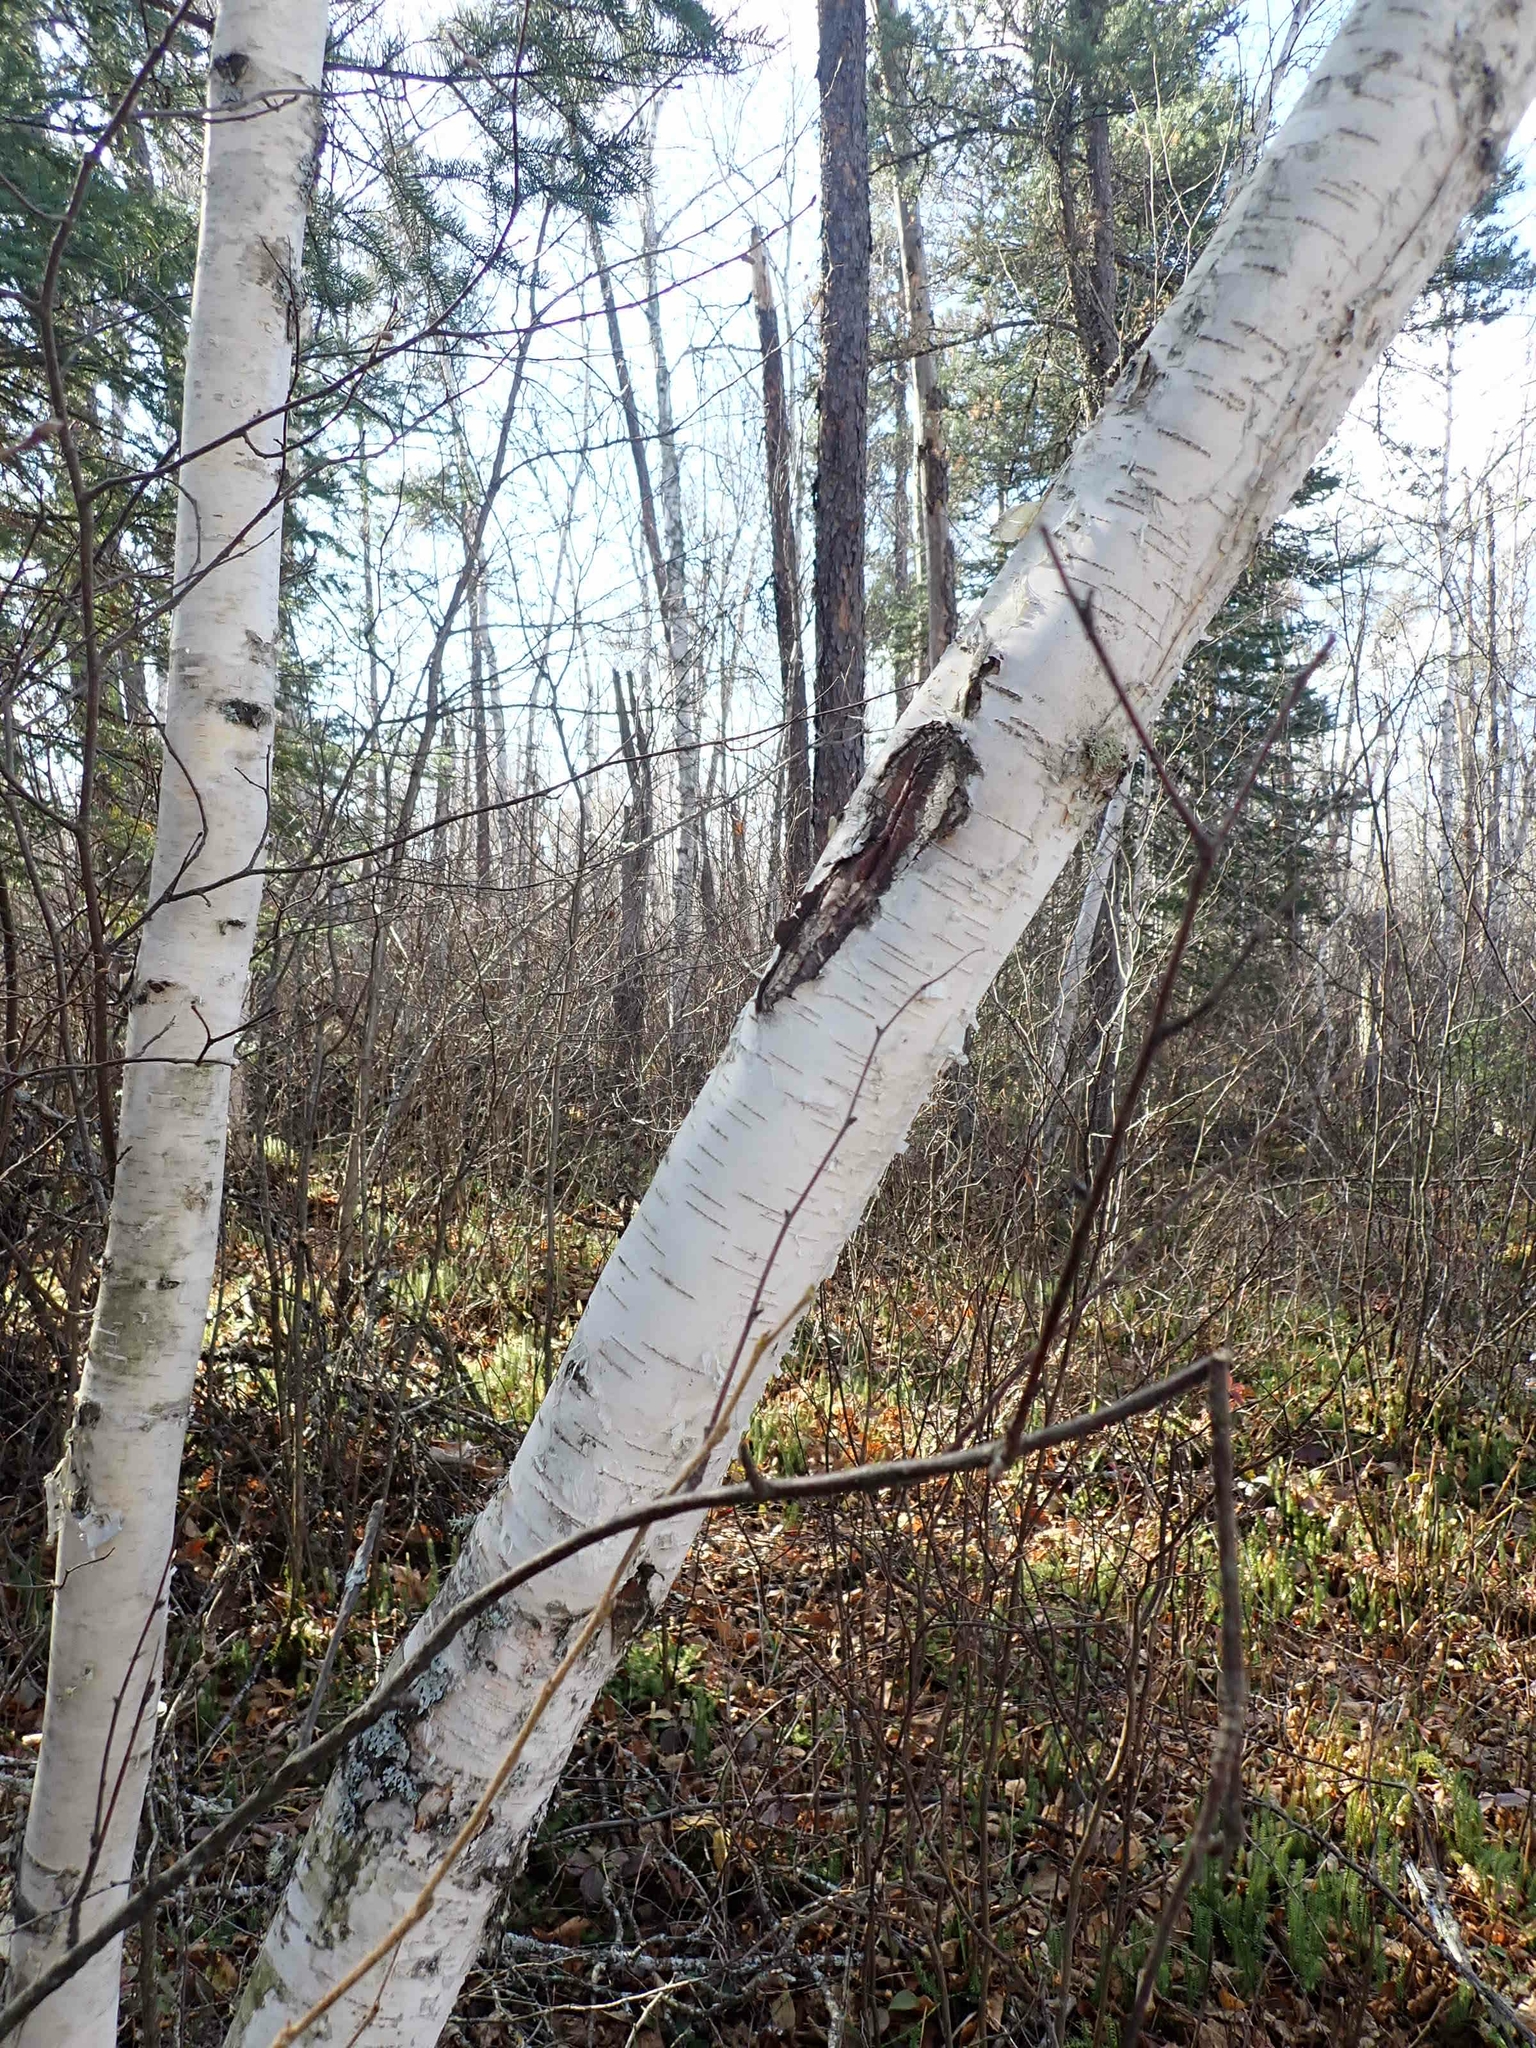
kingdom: Plantae
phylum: Tracheophyta
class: Magnoliopsida
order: Fagales
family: Betulaceae
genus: Betula
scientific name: Betula papyrifera
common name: Paper birch
